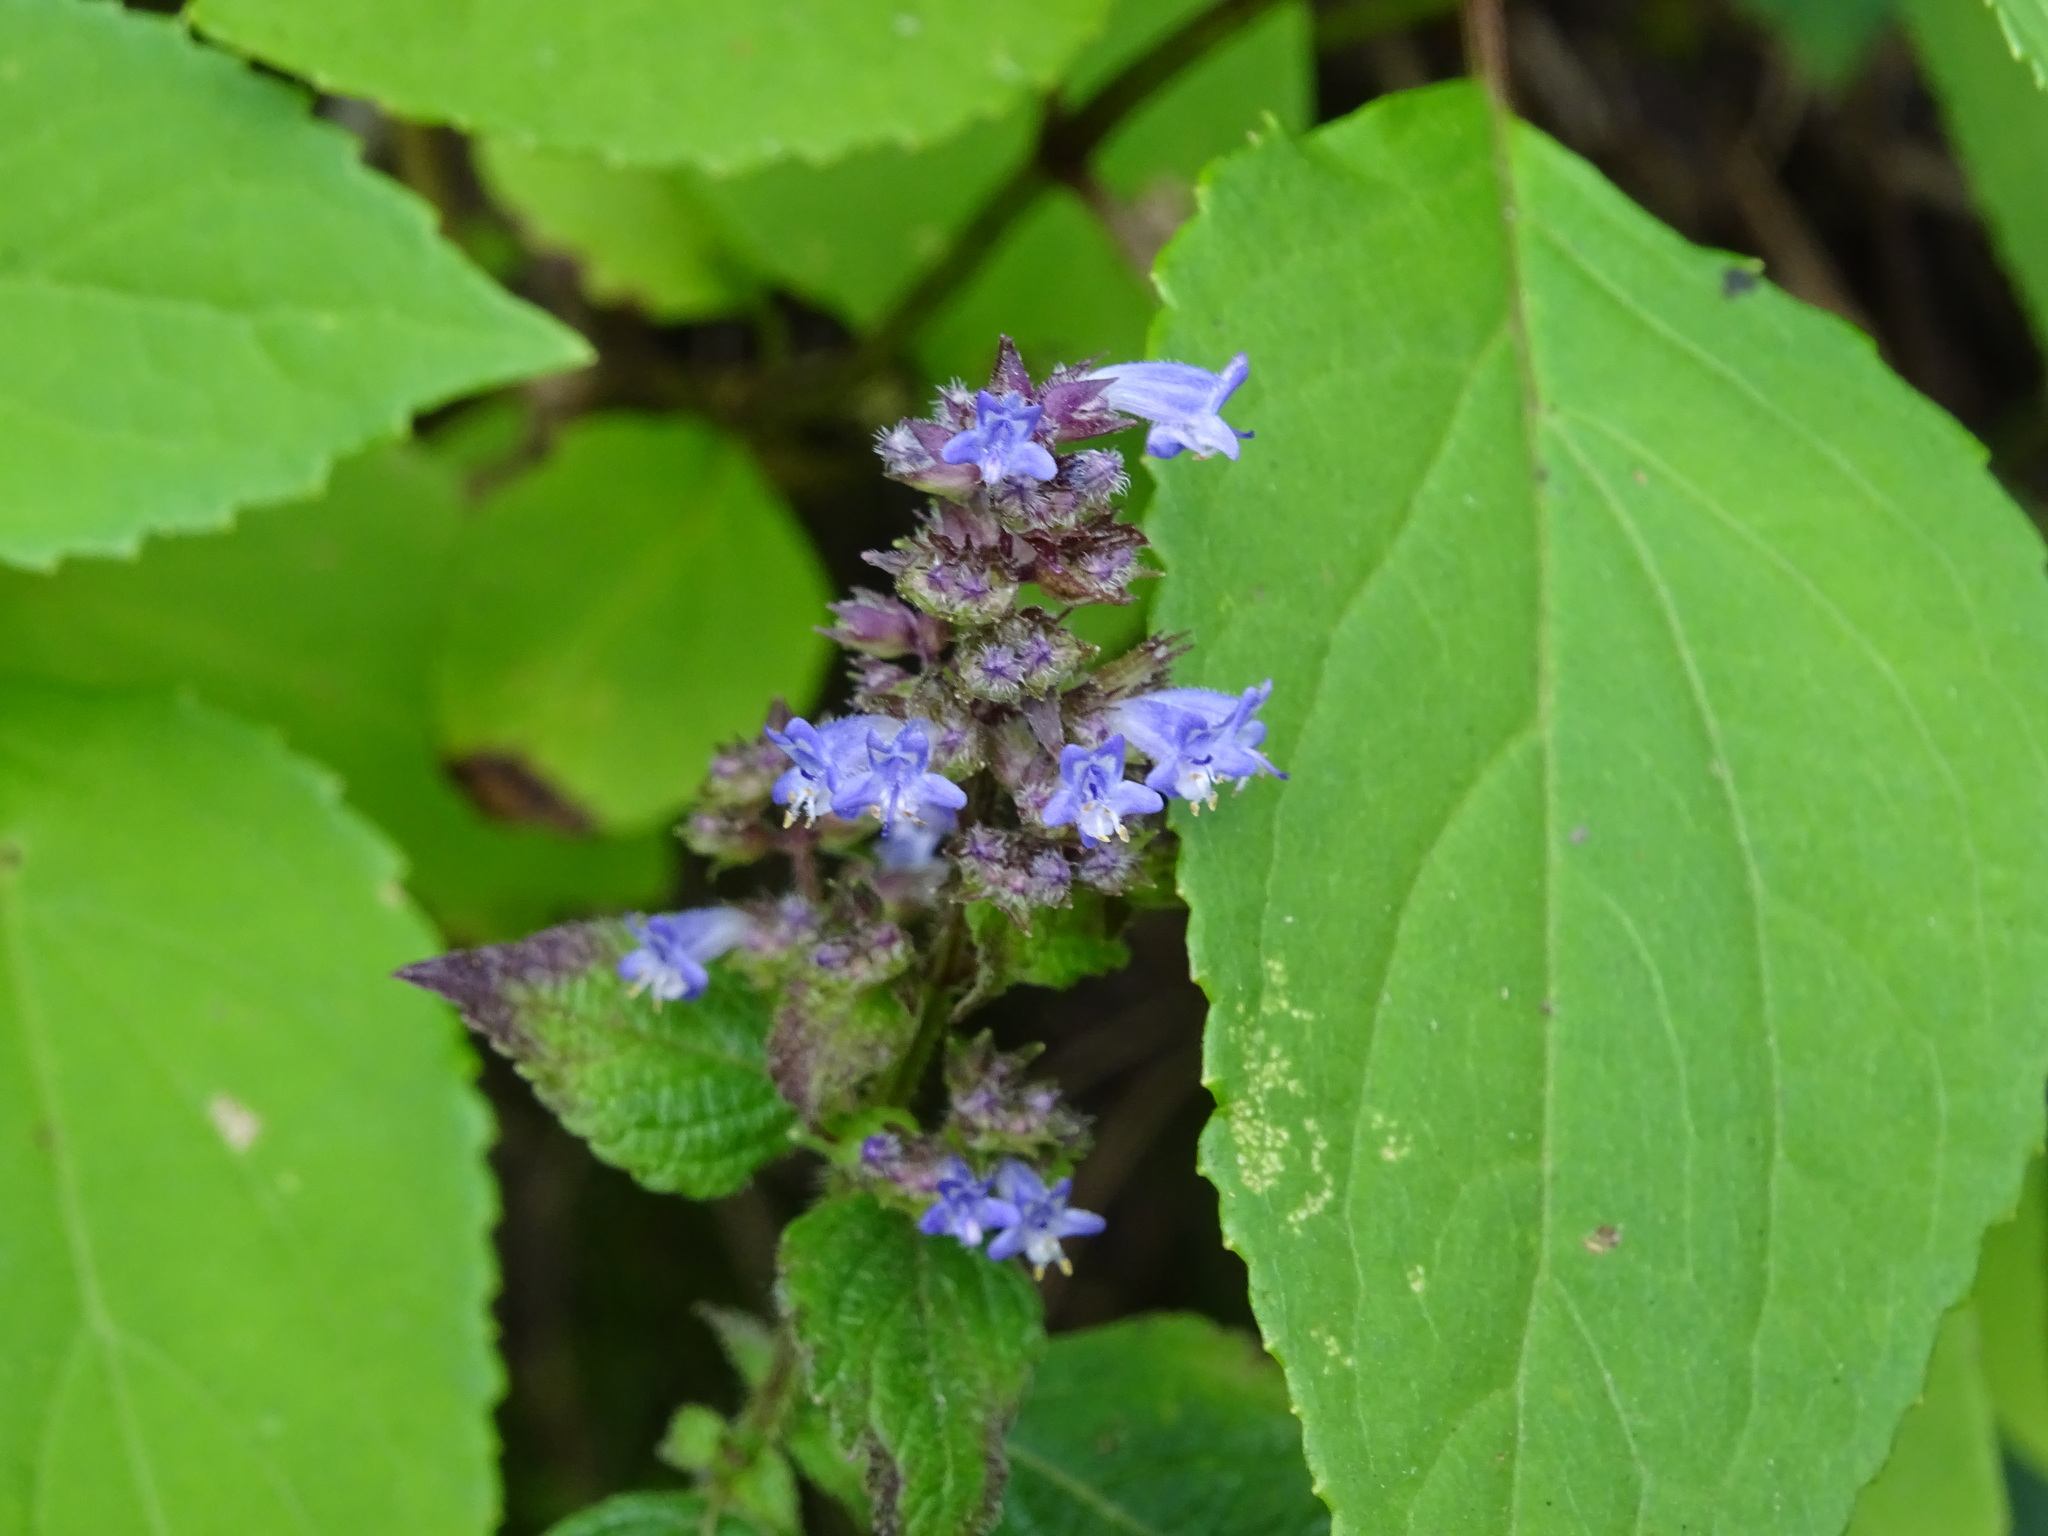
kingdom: Plantae
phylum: Tracheophyta
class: Magnoliopsida
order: Lamiales
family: Lamiaceae
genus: Cantinoa
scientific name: Cantinoa mutabilis
